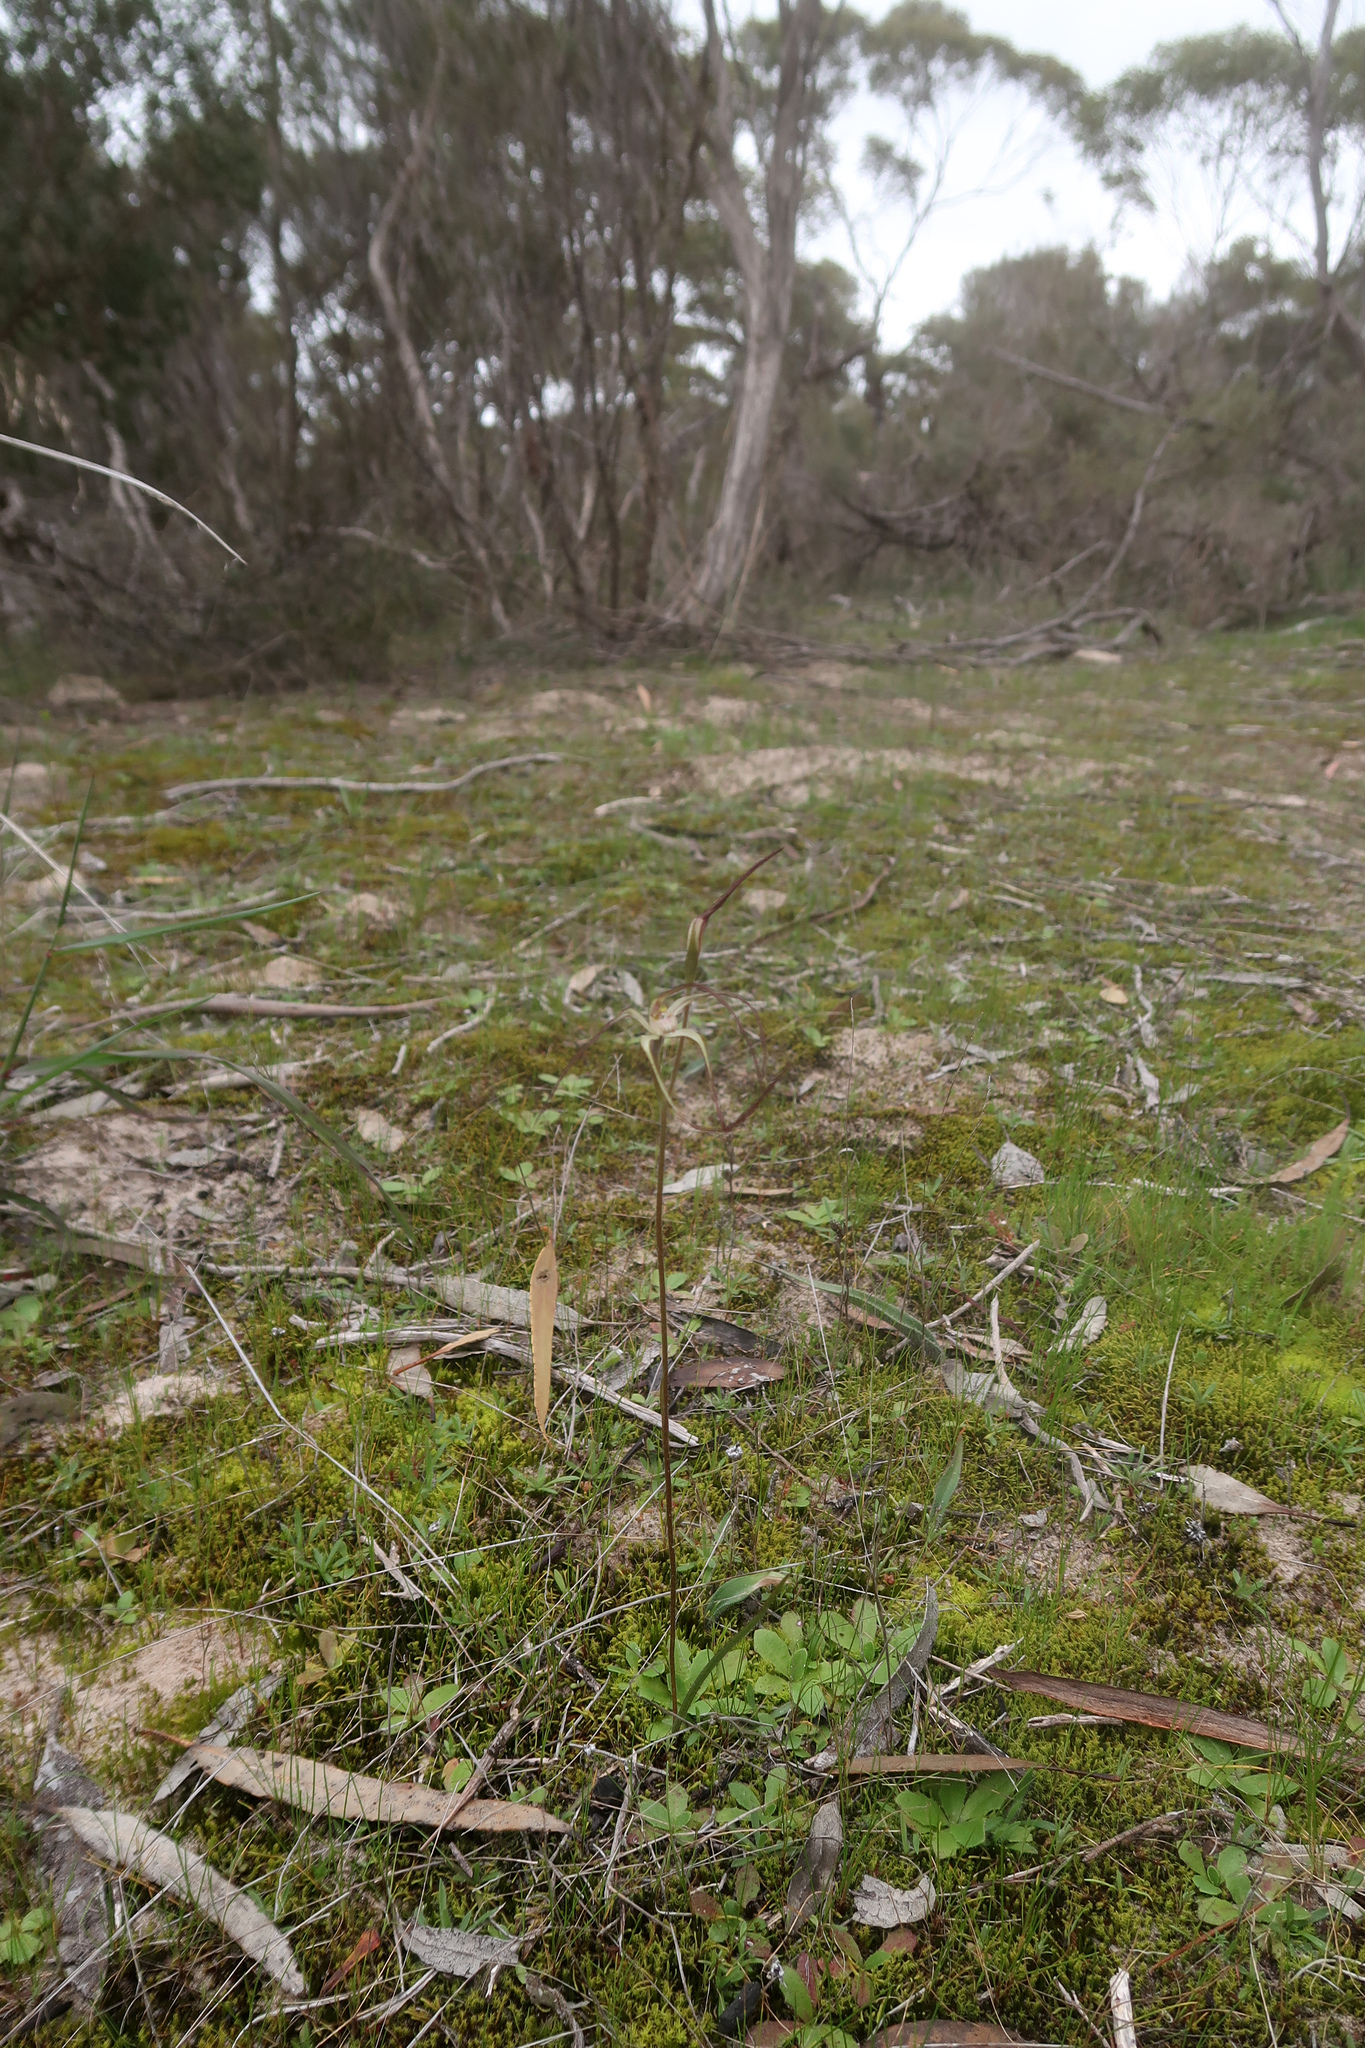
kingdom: Plantae
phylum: Tracheophyta
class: Liliopsida
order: Asparagales
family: Orchidaceae
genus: Caladenia
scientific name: Caladenia capillata
